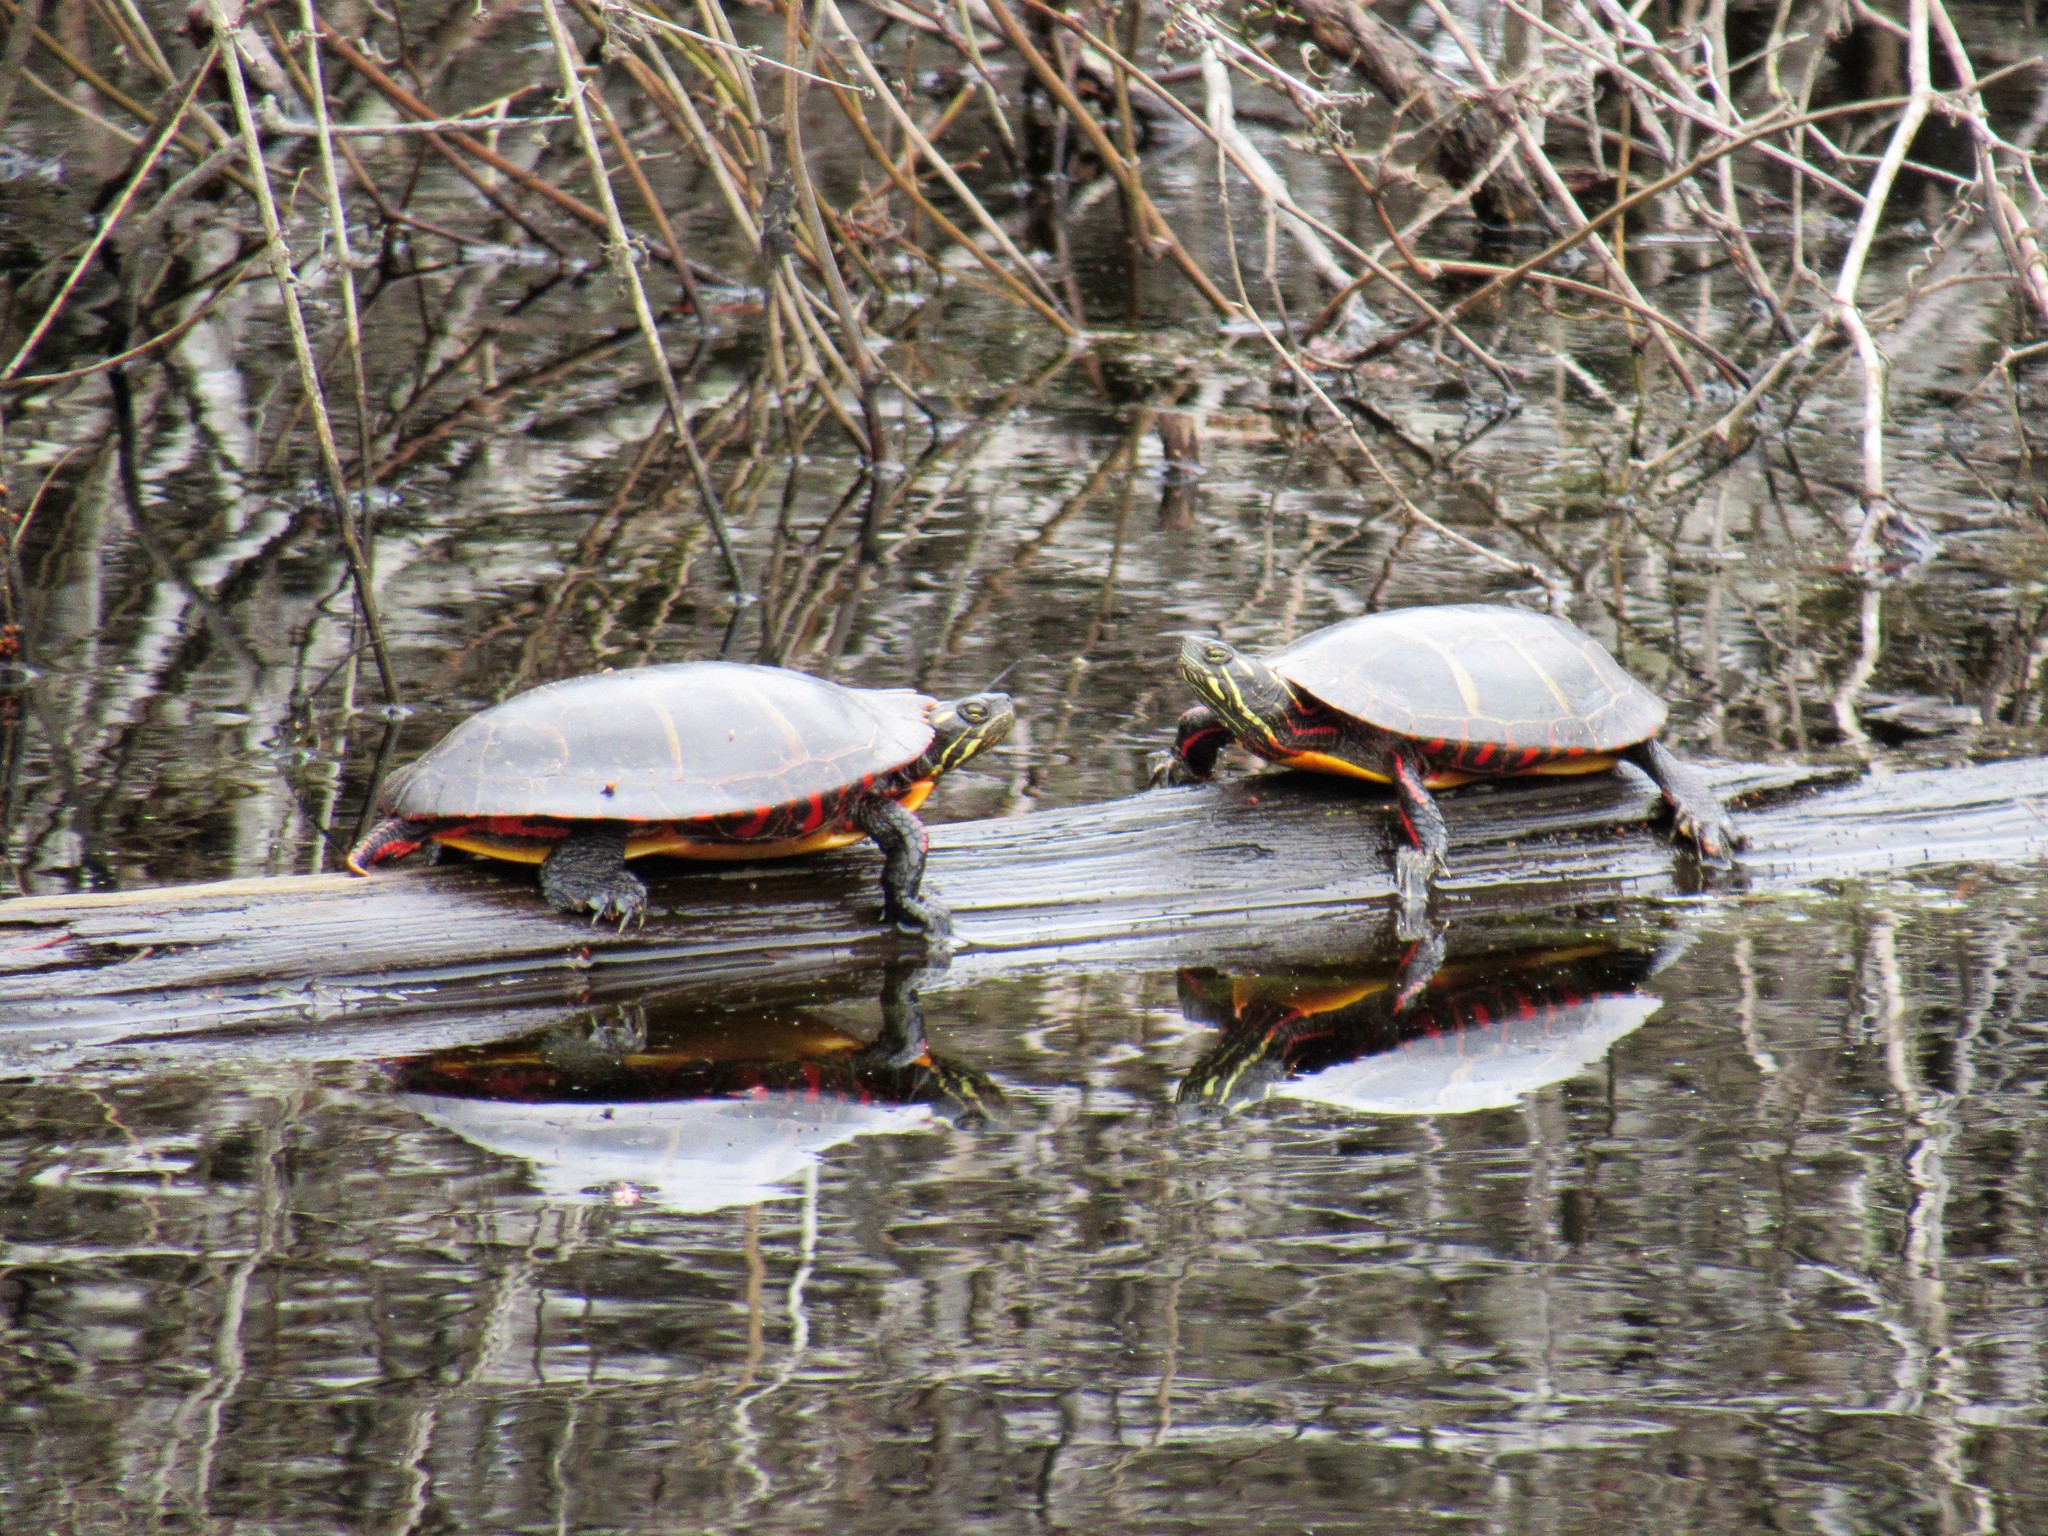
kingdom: Animalia
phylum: Chordata
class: Testudines
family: Emydidae
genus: Chrysemys
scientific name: Chrysemys picta
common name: Painted turtle
